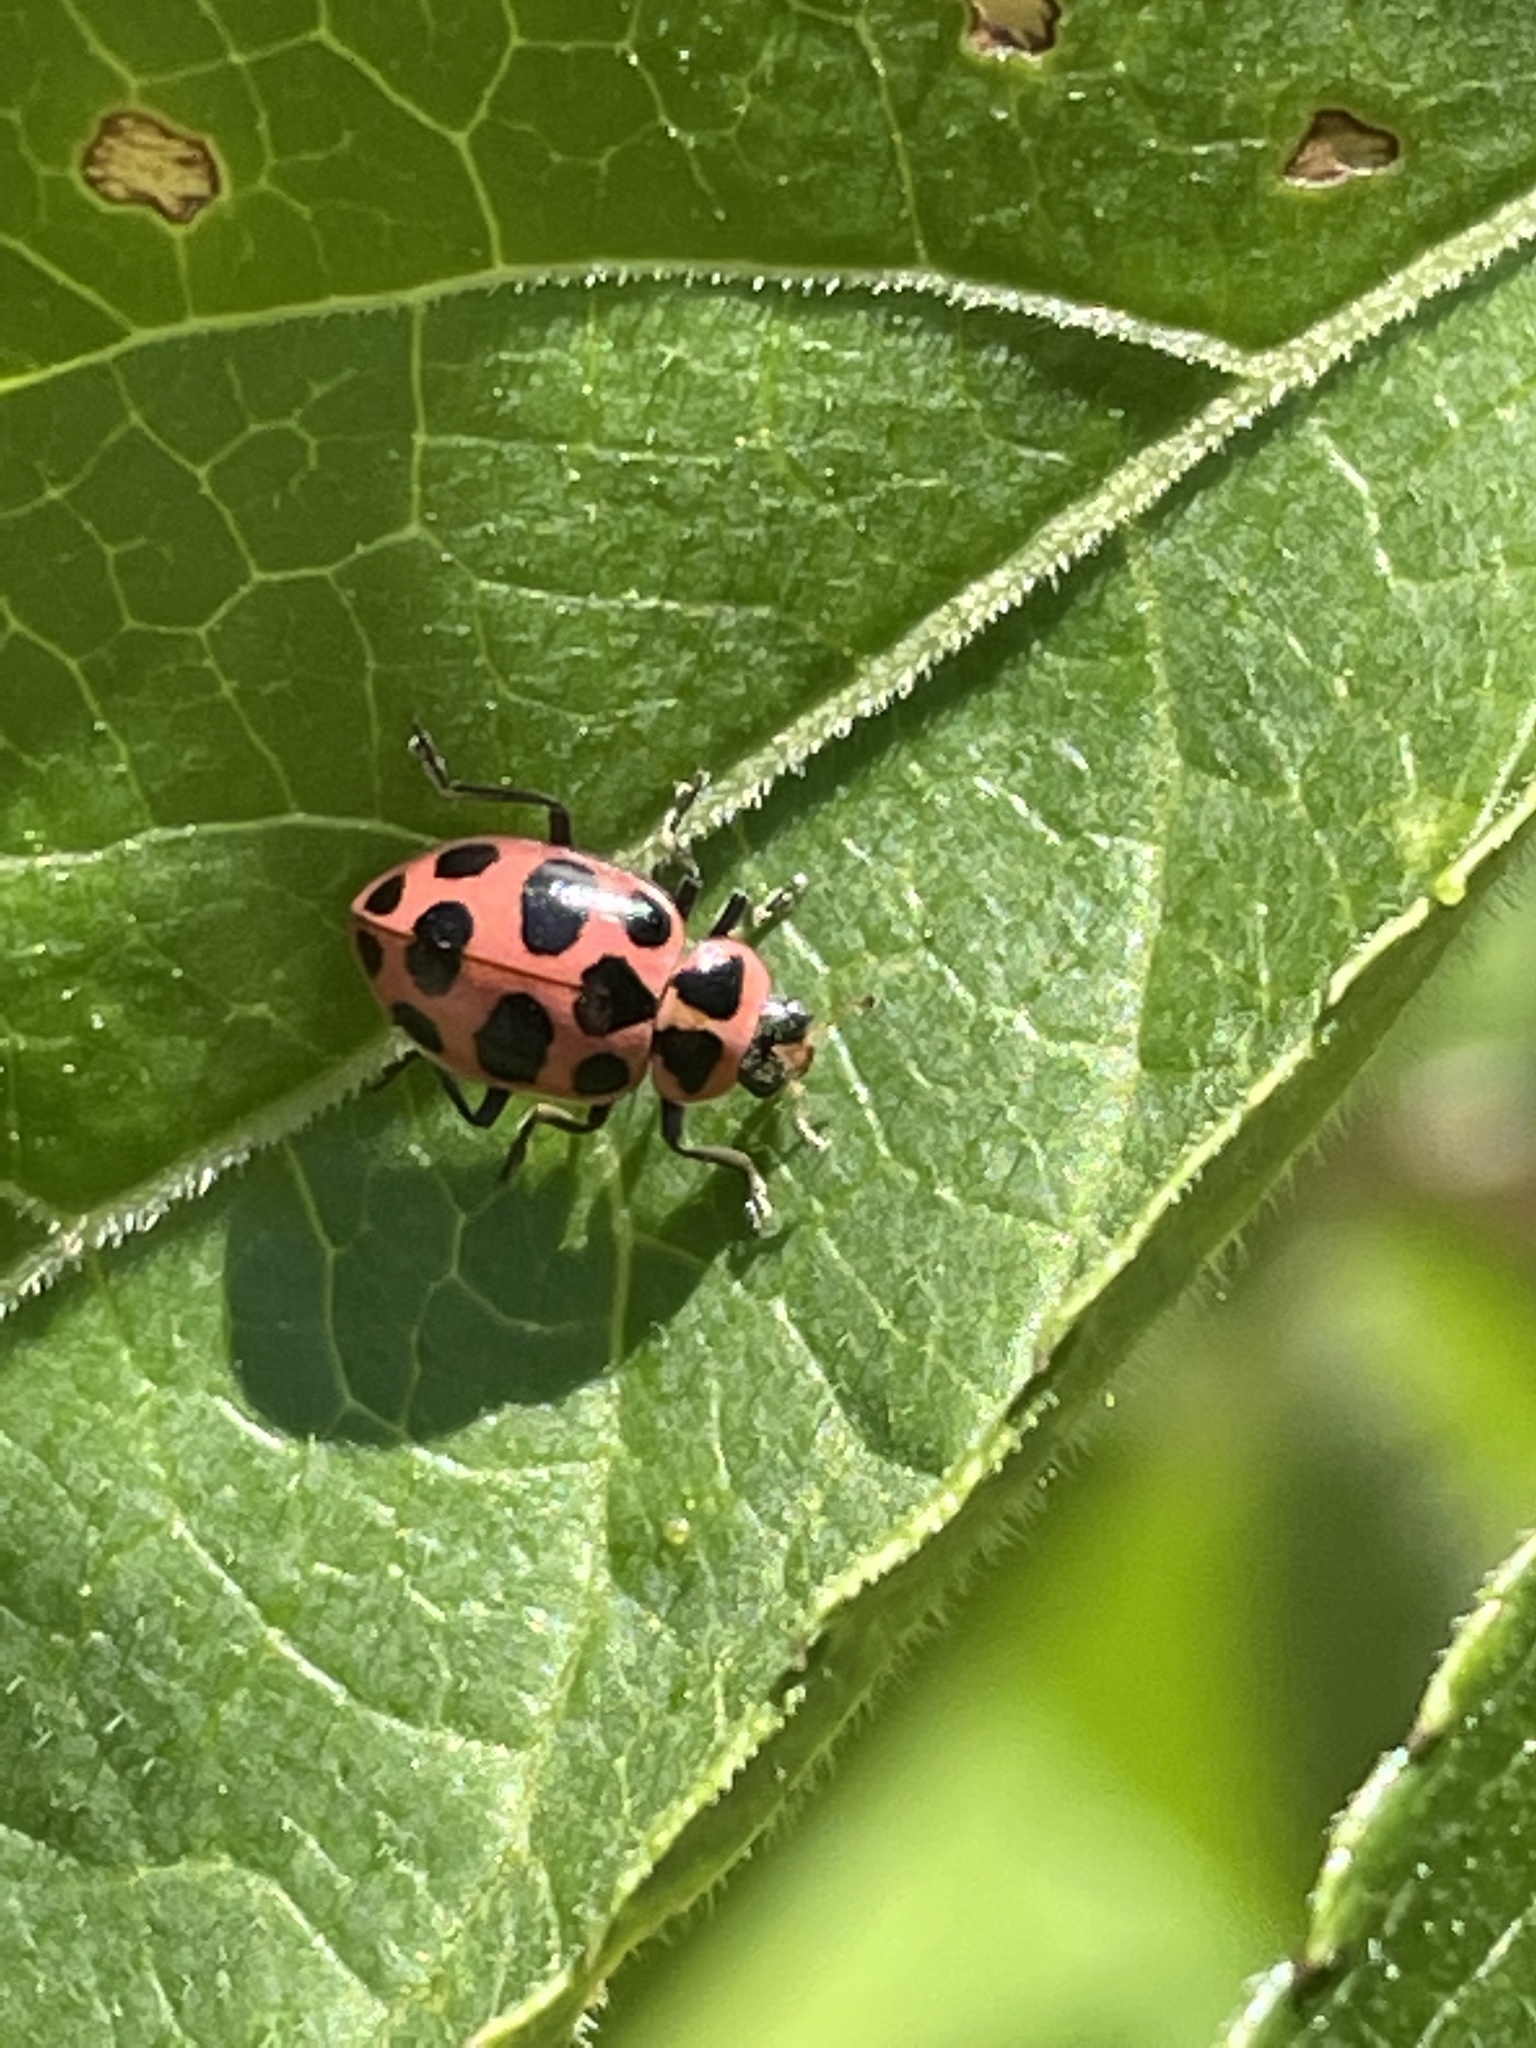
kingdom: Animalia
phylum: Arthropoda
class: Insecta
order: Coleoptera
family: Coccinellidae
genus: Coleomegilla
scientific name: Coleomegilla maculata
